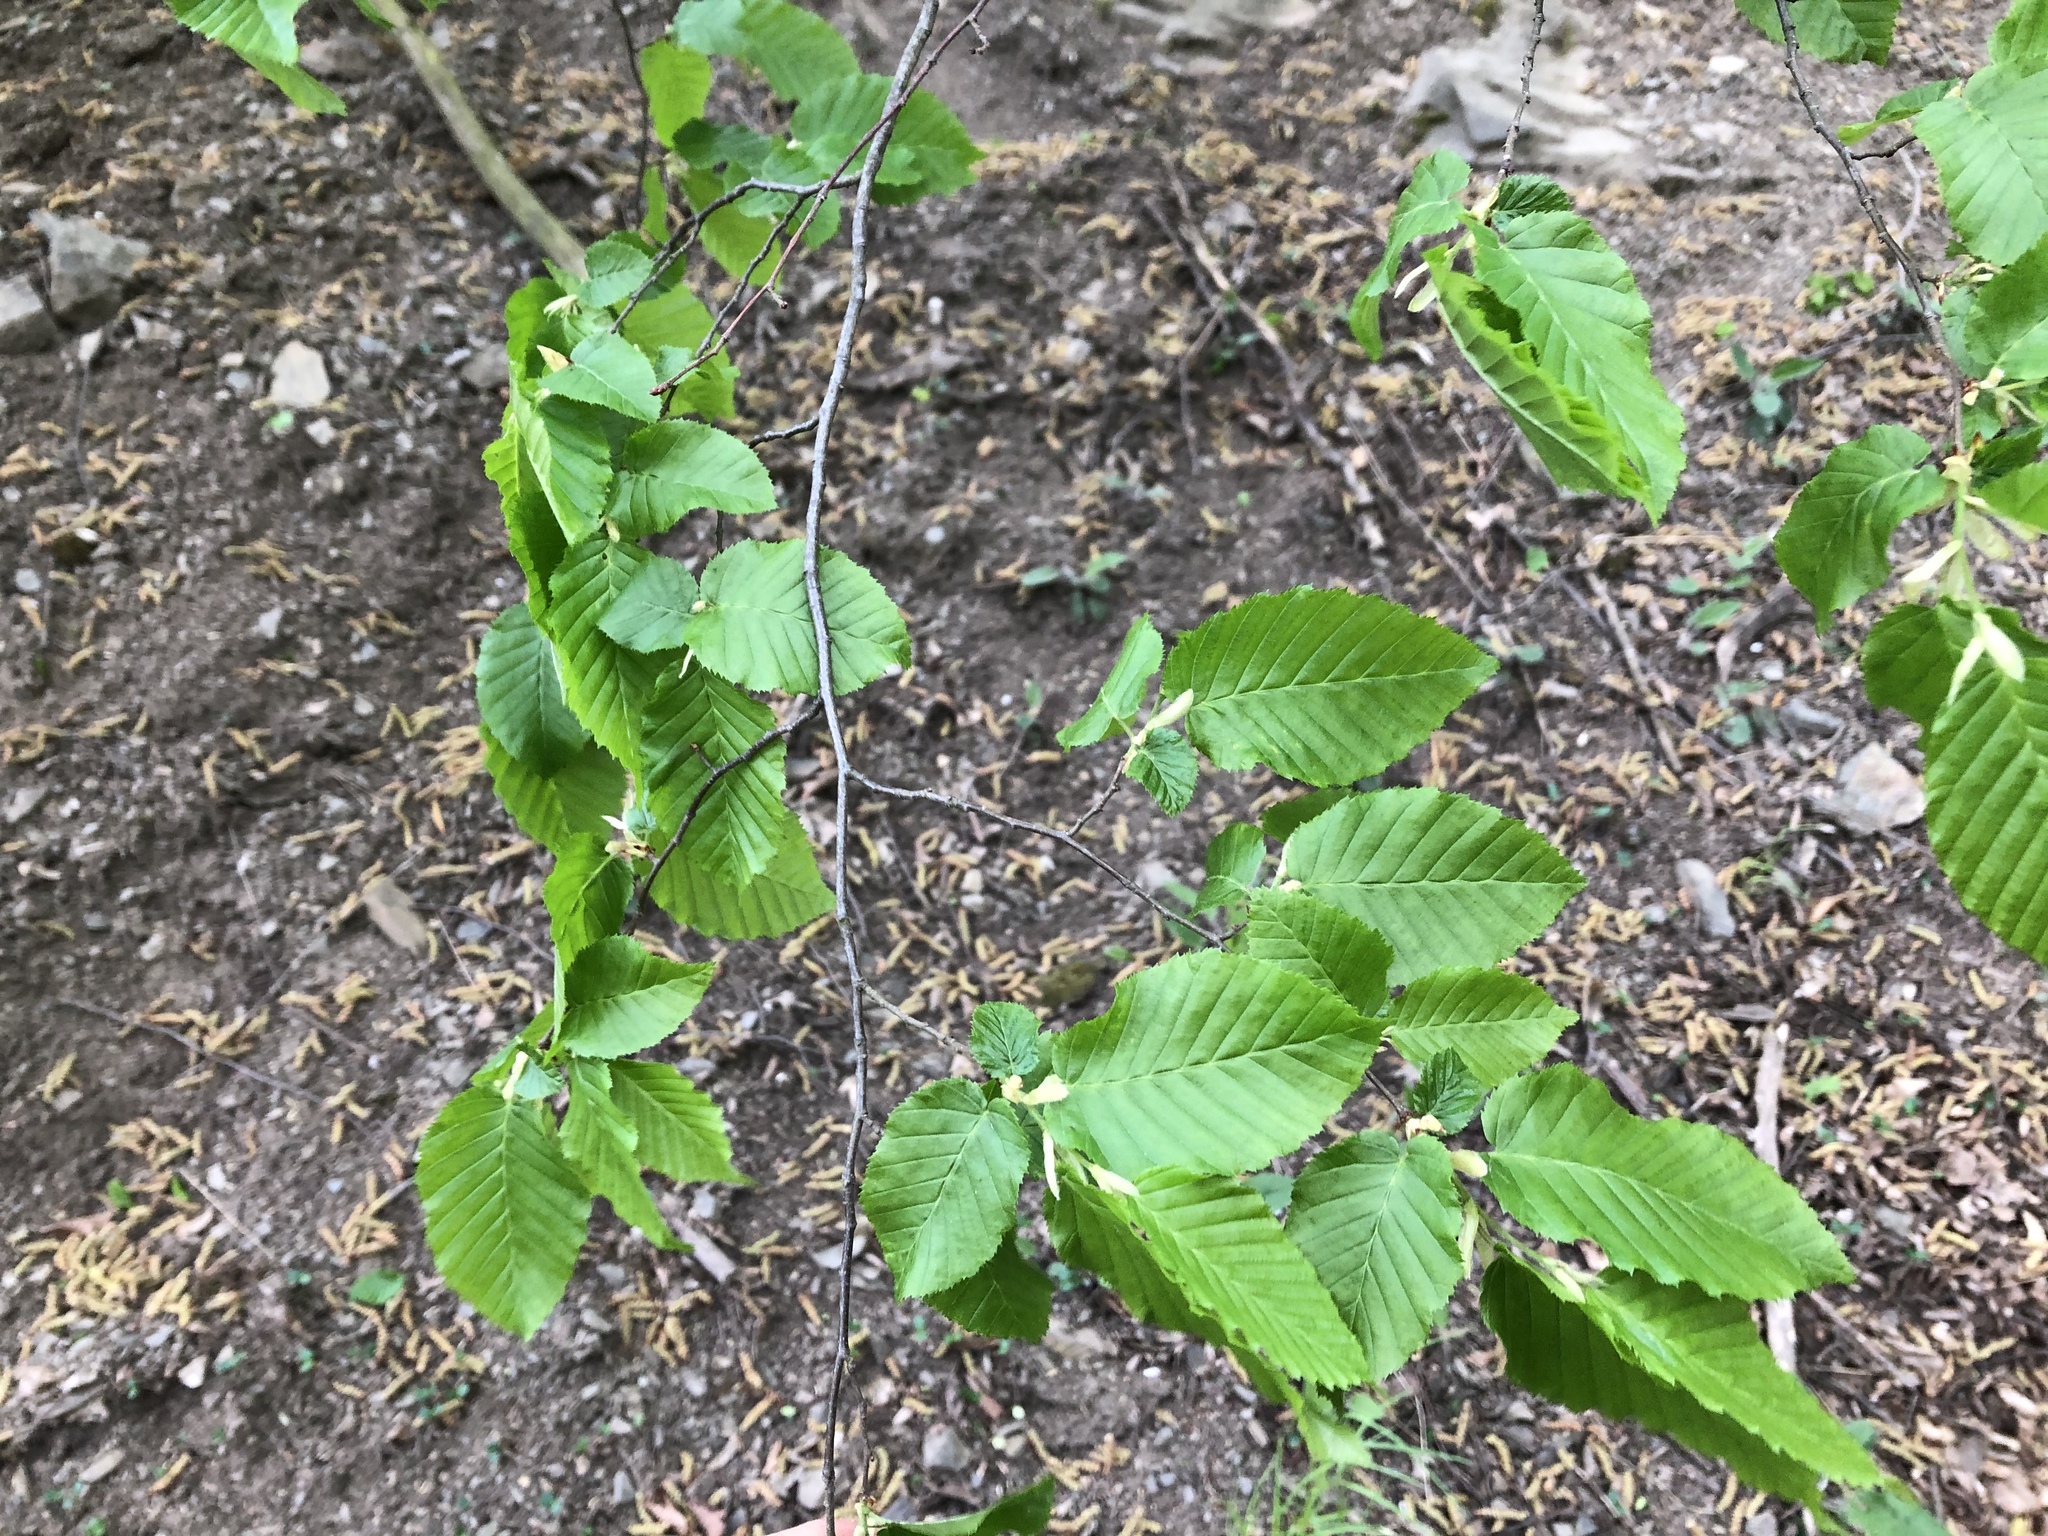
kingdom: Plantae
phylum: Tracheophyta
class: Magnoliopsida
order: Fagales
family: Betulaceae
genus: Carpinus
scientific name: Carpinus betulus
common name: Hornbeam
